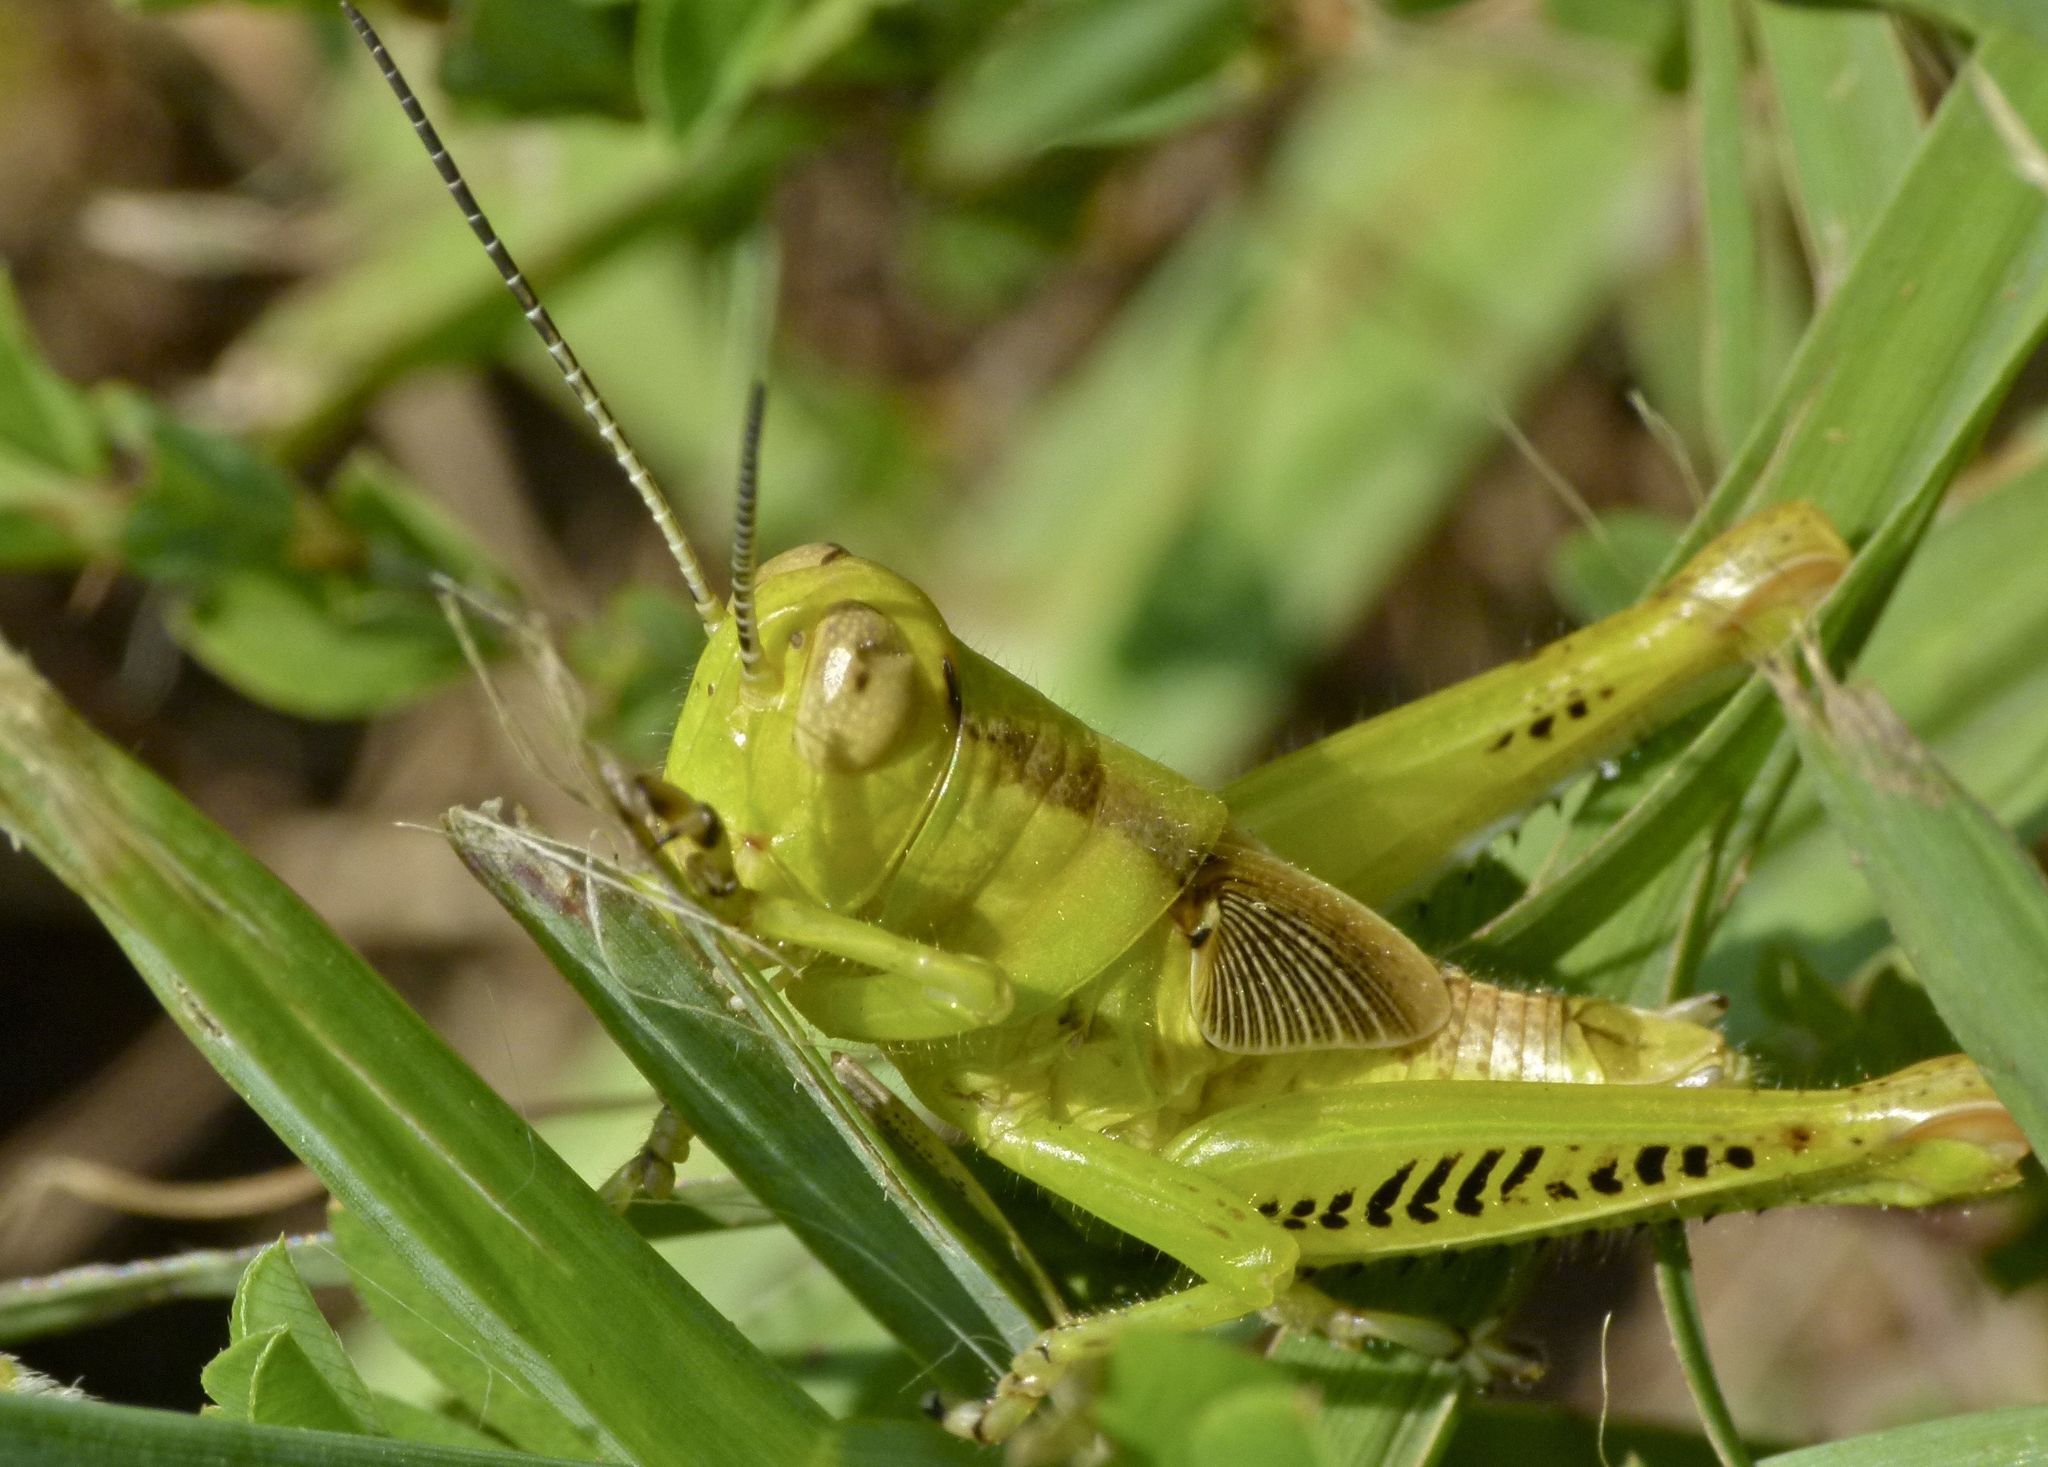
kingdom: Animalia
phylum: Arthropoda
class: Insecta
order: Orthoptera
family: Acrididae
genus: Melanoplus
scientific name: Melanoplus differentialis
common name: Differential grasshopper
